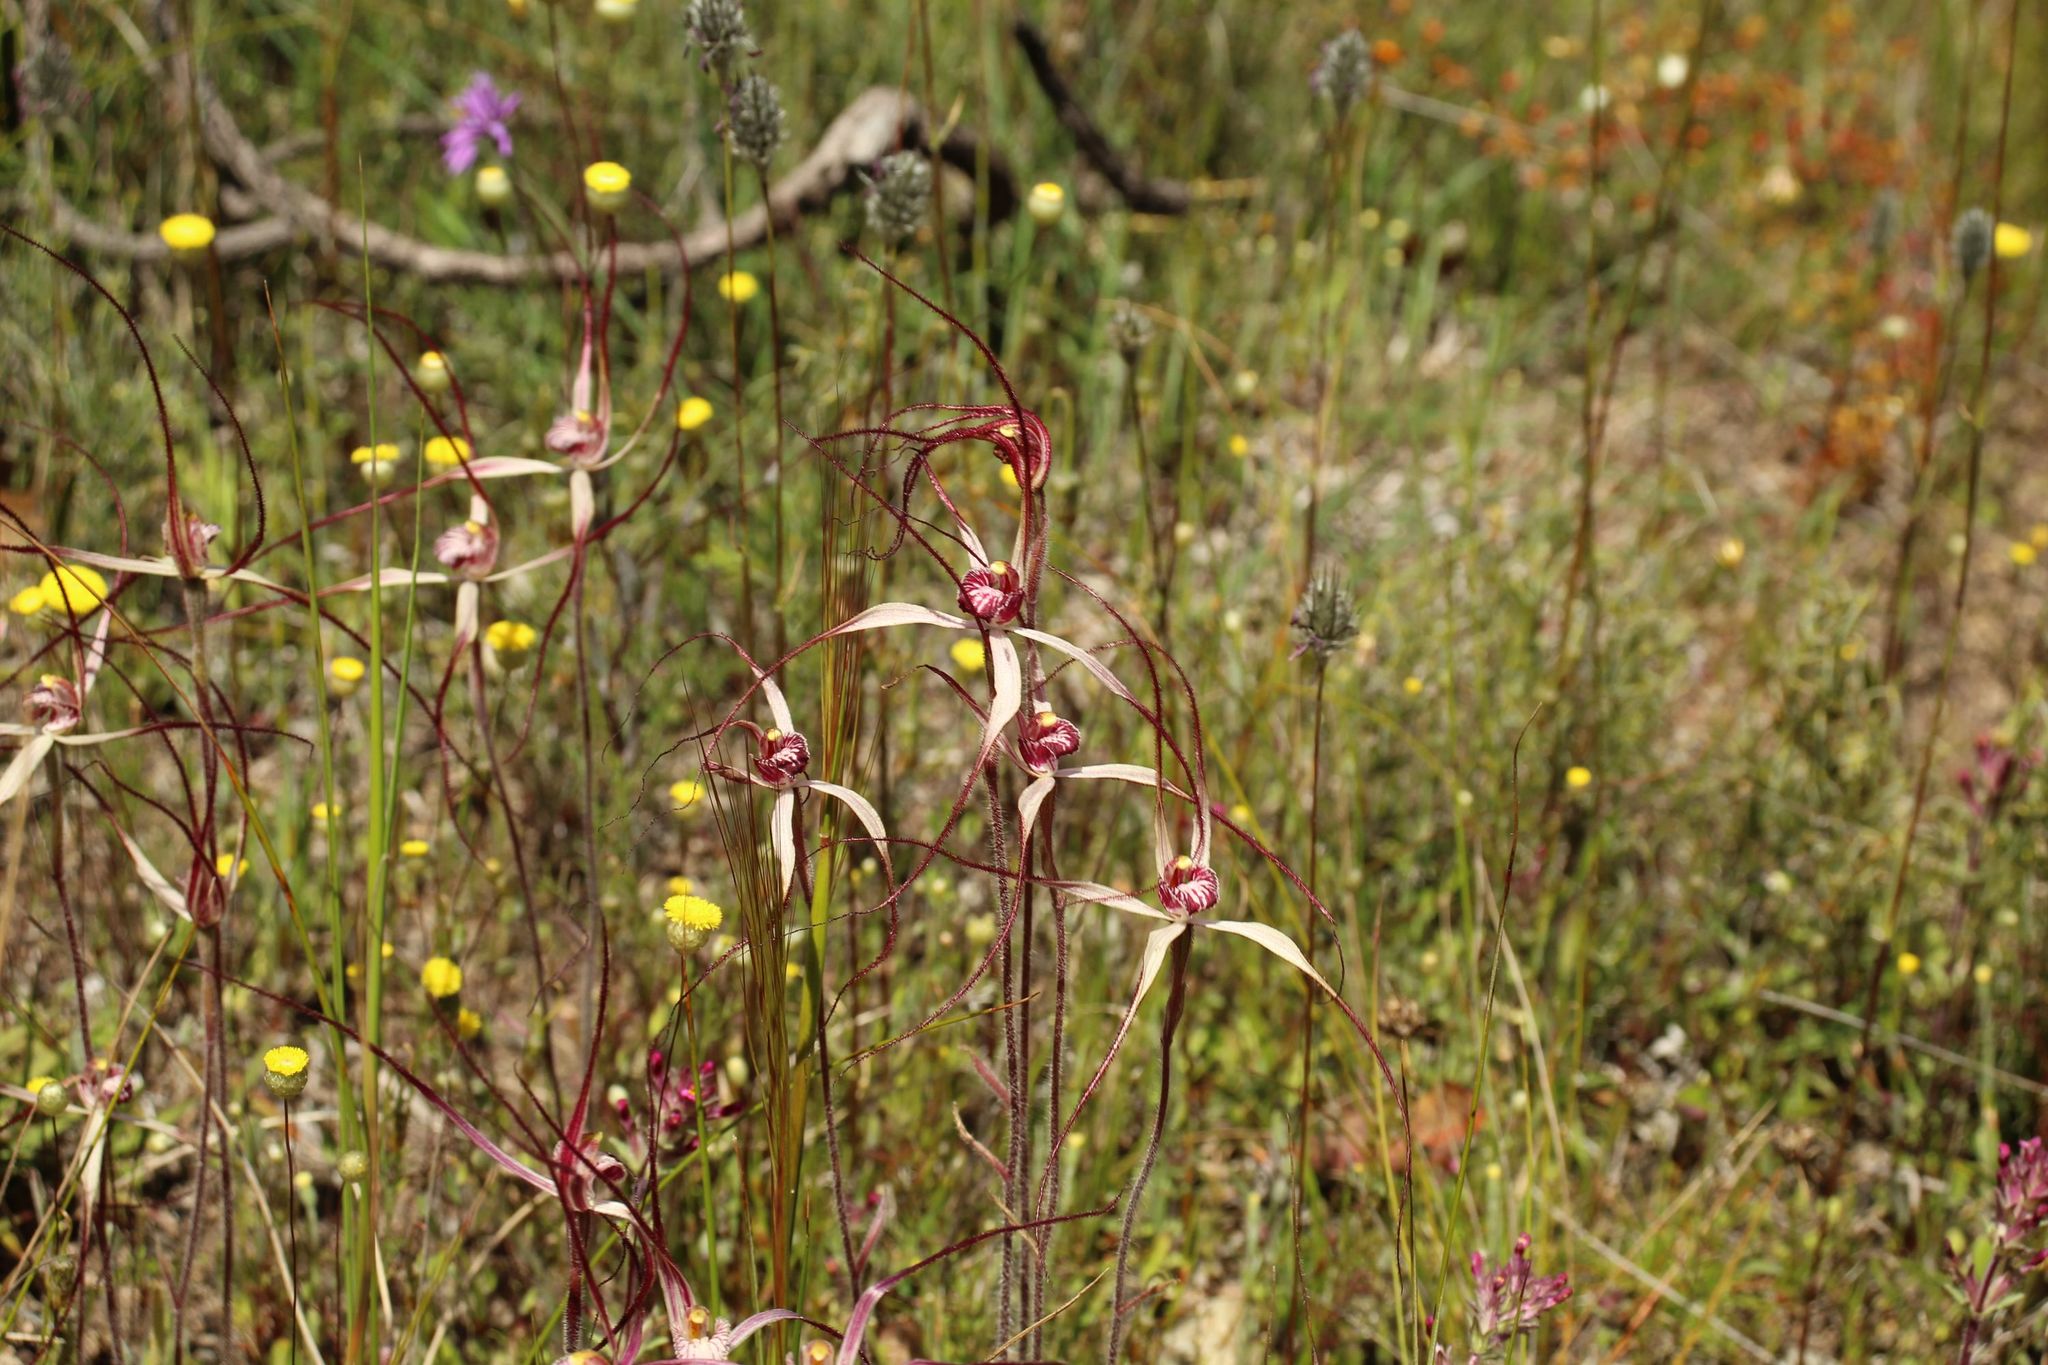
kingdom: Plantae
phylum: Tracheophyta
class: Liliopsida
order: Asparagales
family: Orchidaceae
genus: Caladenia
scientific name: Caladenia polychroma
